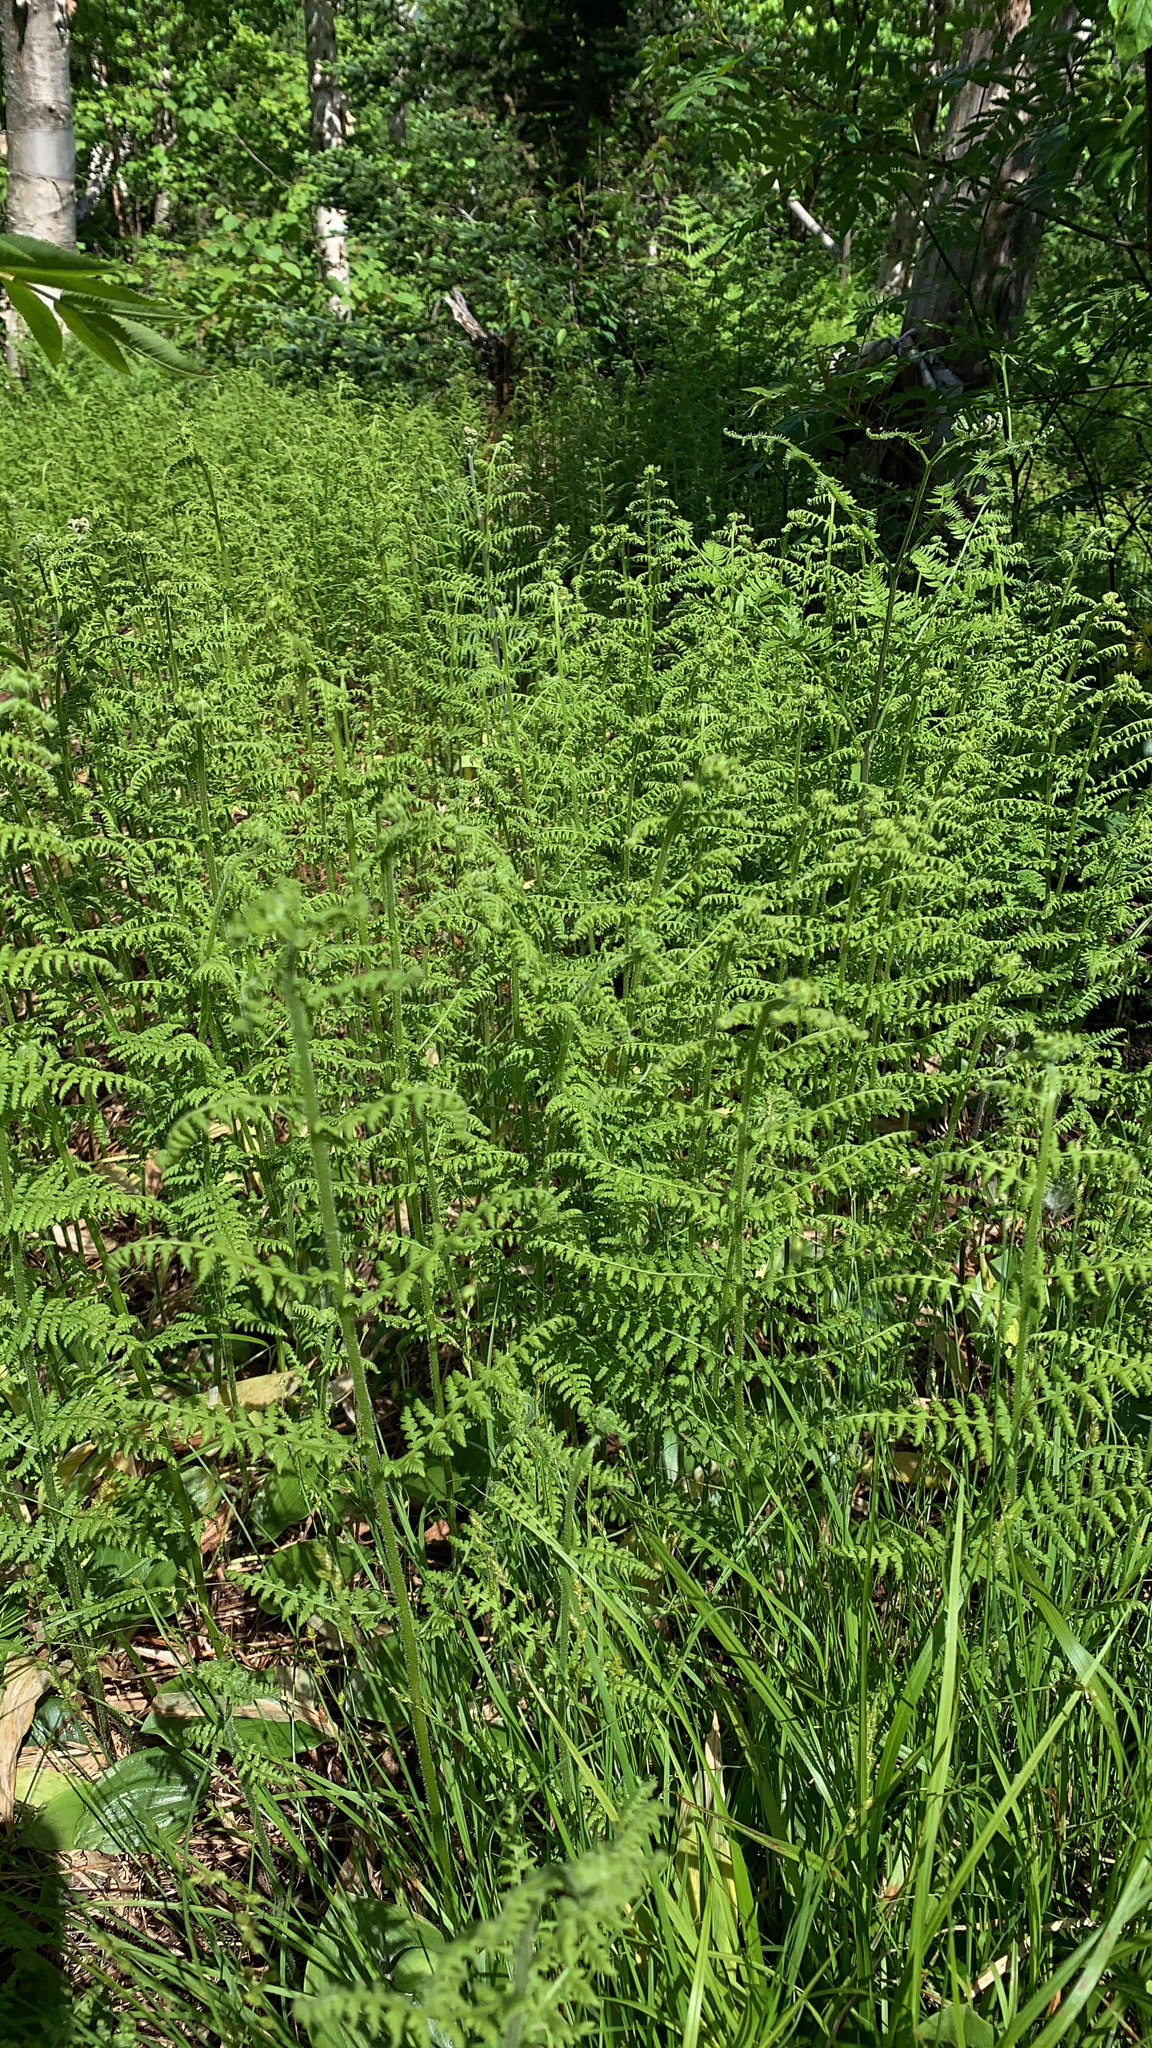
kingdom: Plantae
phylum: Tracheophyta
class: Polypodiopsida
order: Polypodiales
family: Dennstaedtiaceae
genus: Sitobolium
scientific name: Sitobolium punctilobum
